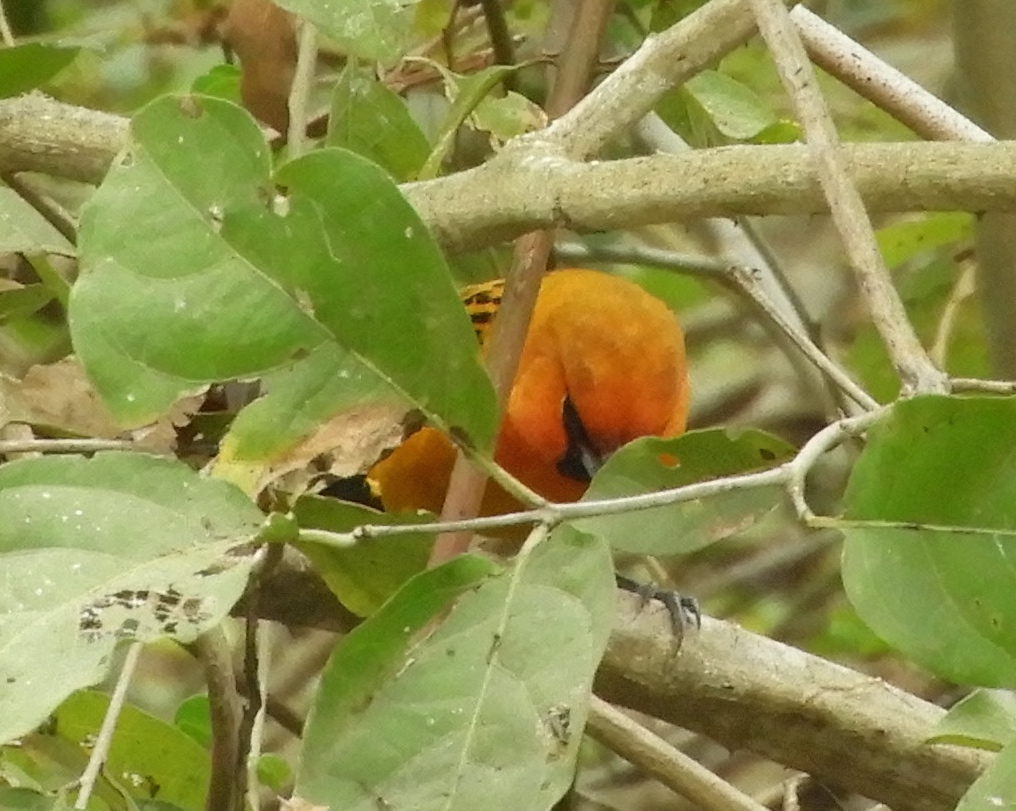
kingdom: Animalia
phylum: Chordata
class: Aves
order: Passeriformes
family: Icteridae
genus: Icterus
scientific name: Icterus pustulatus
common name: Streak-backed oriole
